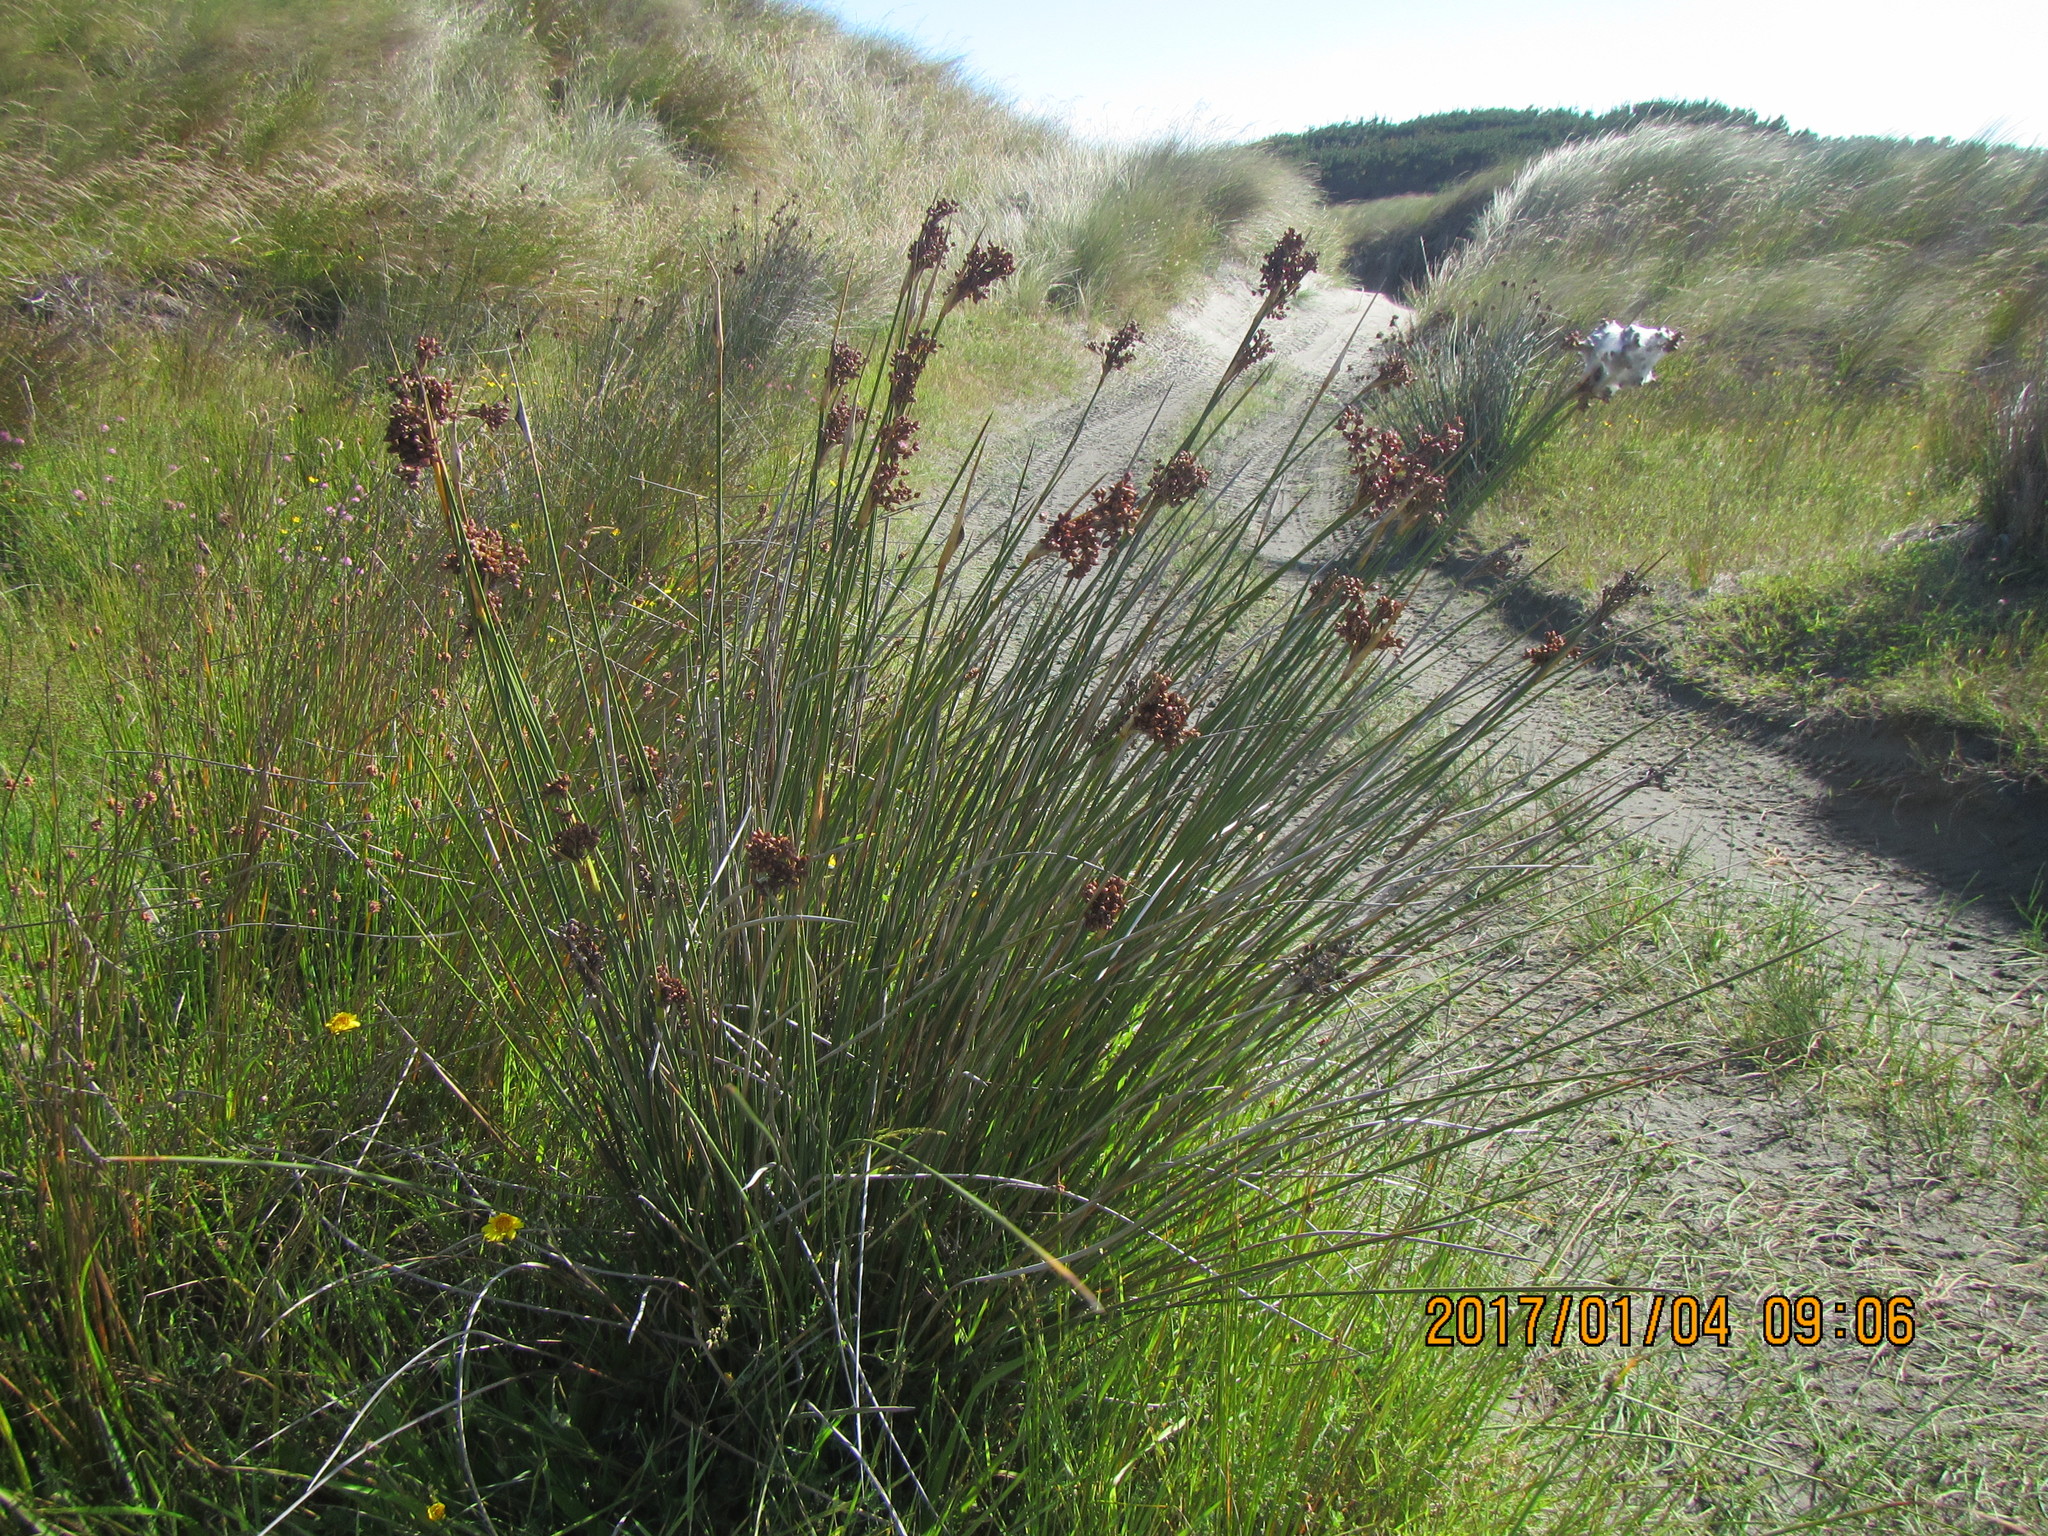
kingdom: Plantae
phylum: Tracheophyta
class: Liliopsida
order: Poales
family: Juncaceae
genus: Juncus
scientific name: Juncus acutus
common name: Sharp rush
